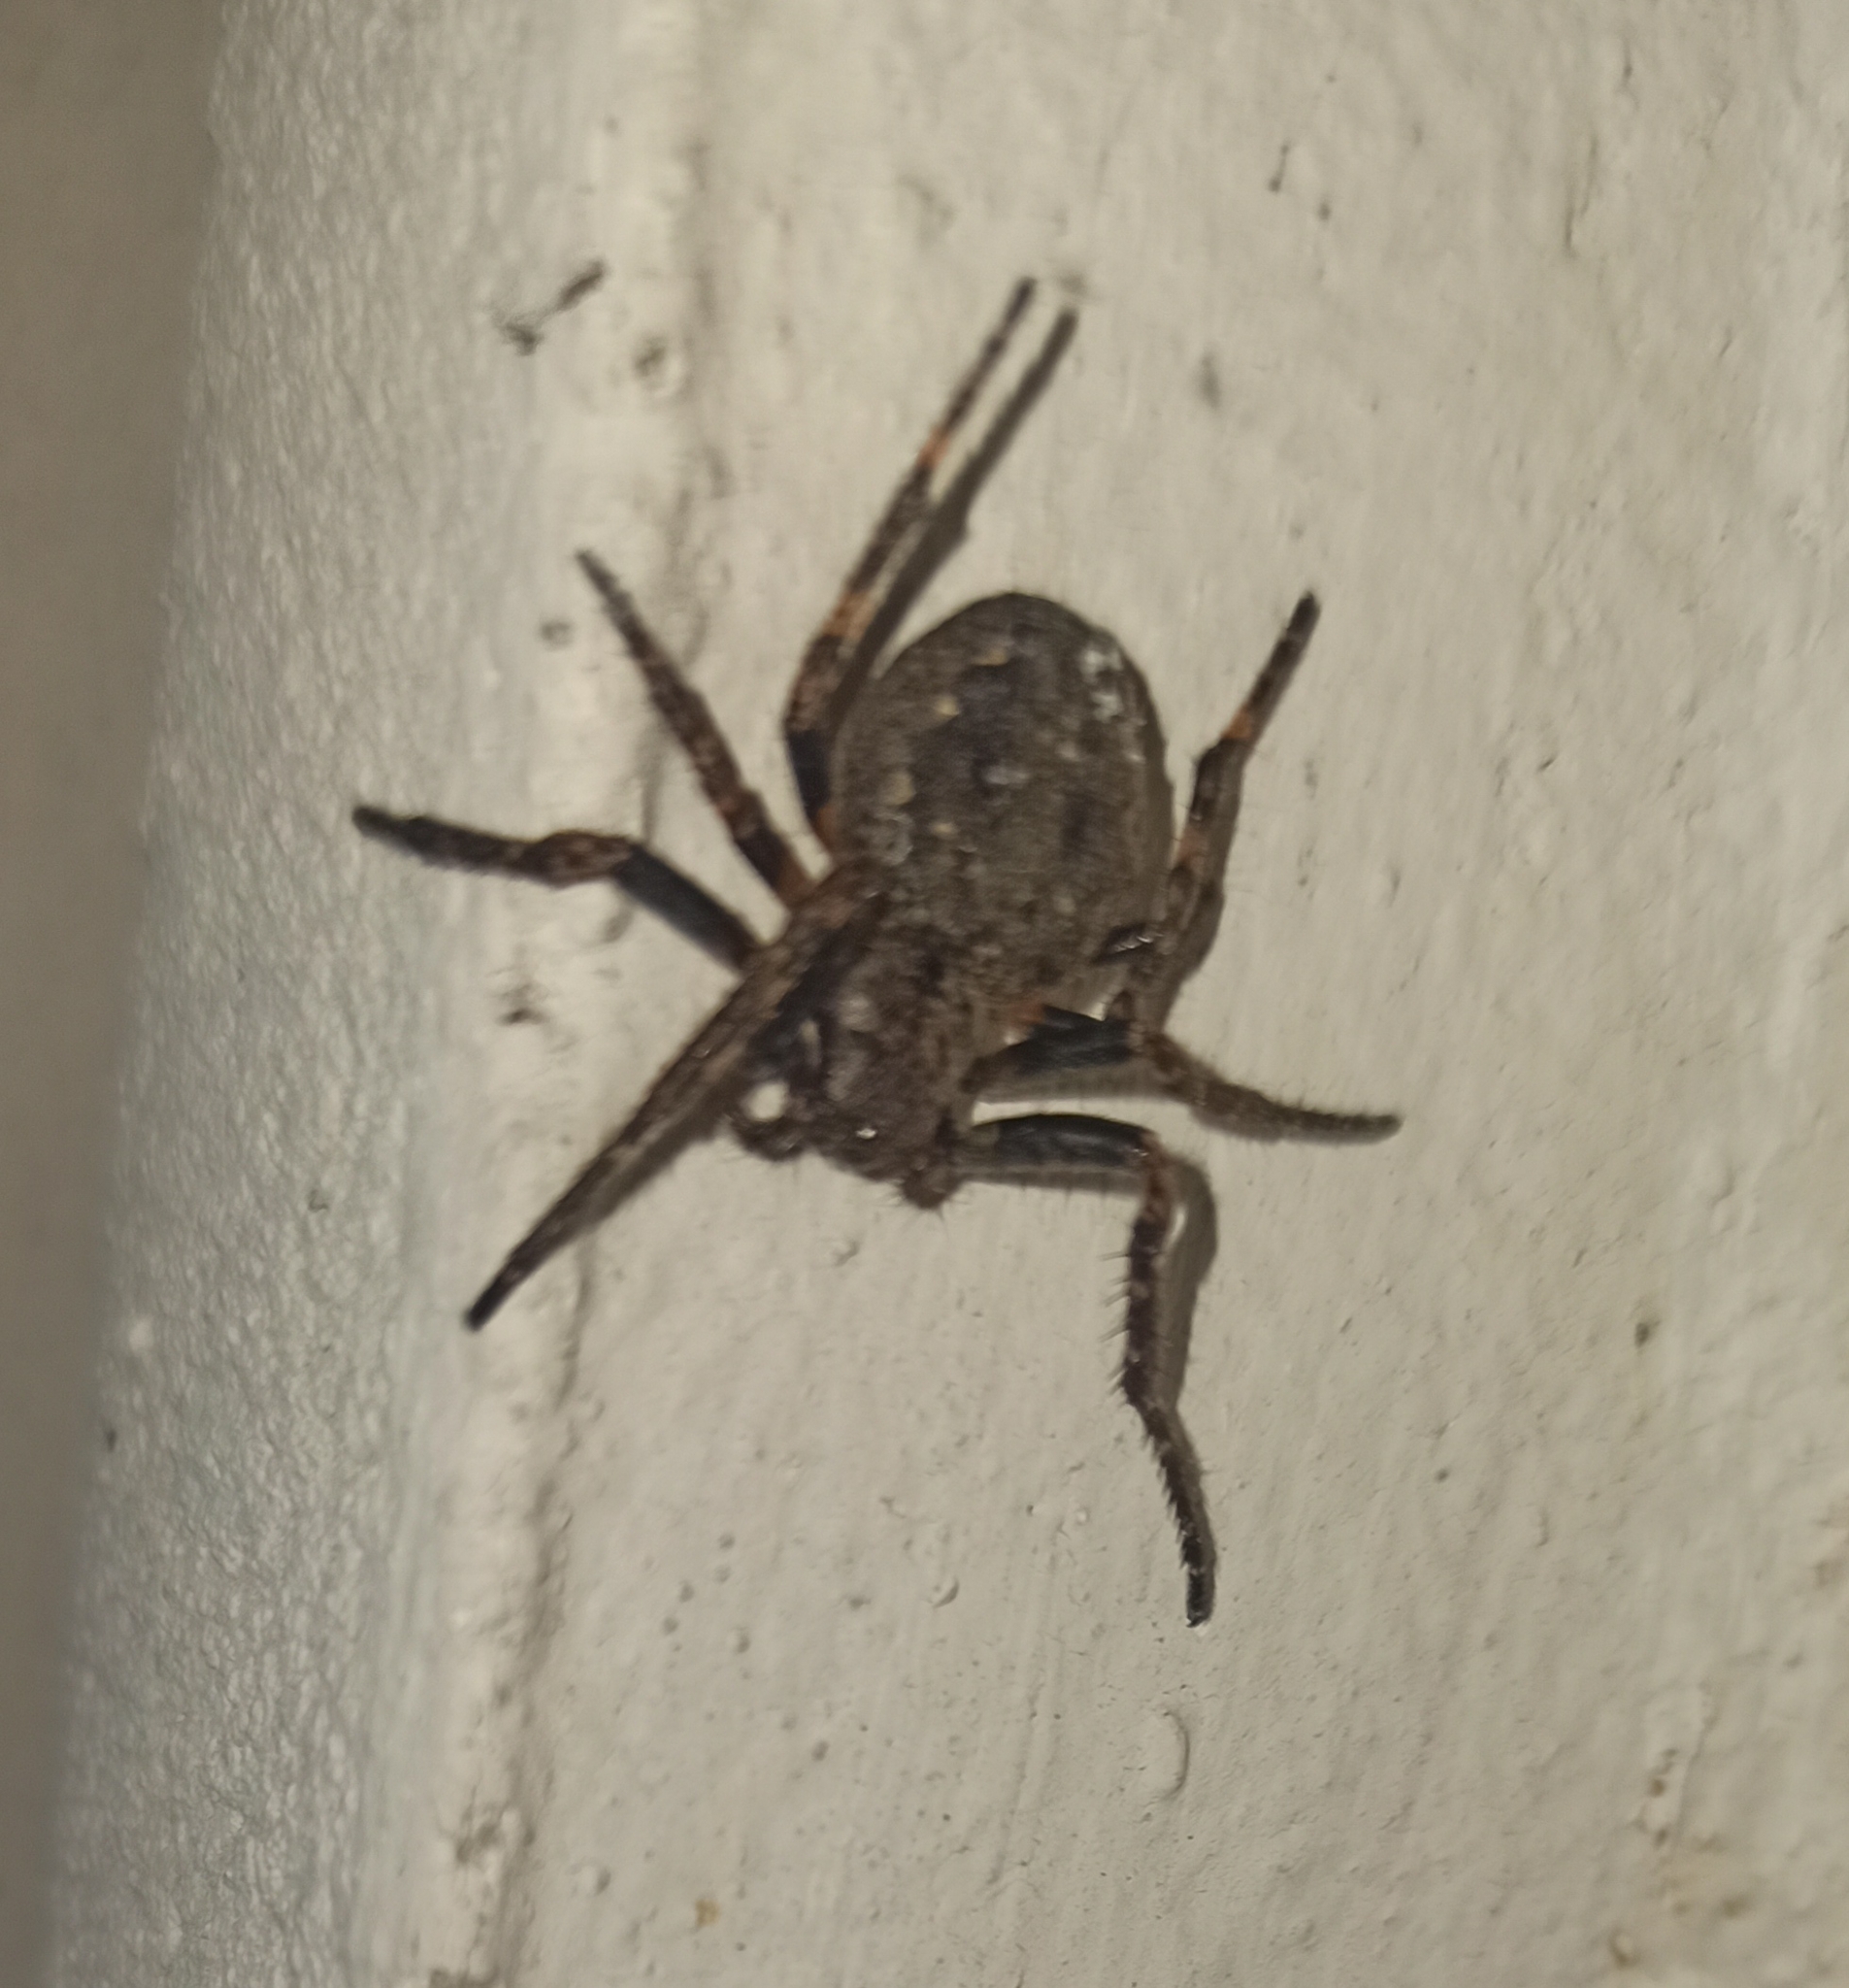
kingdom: Animalia
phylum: Arthropoda
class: Arachnida
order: Araneae
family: Araneidae
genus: Nuctenea
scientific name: Nuctenea umbratica
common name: Toad spider
